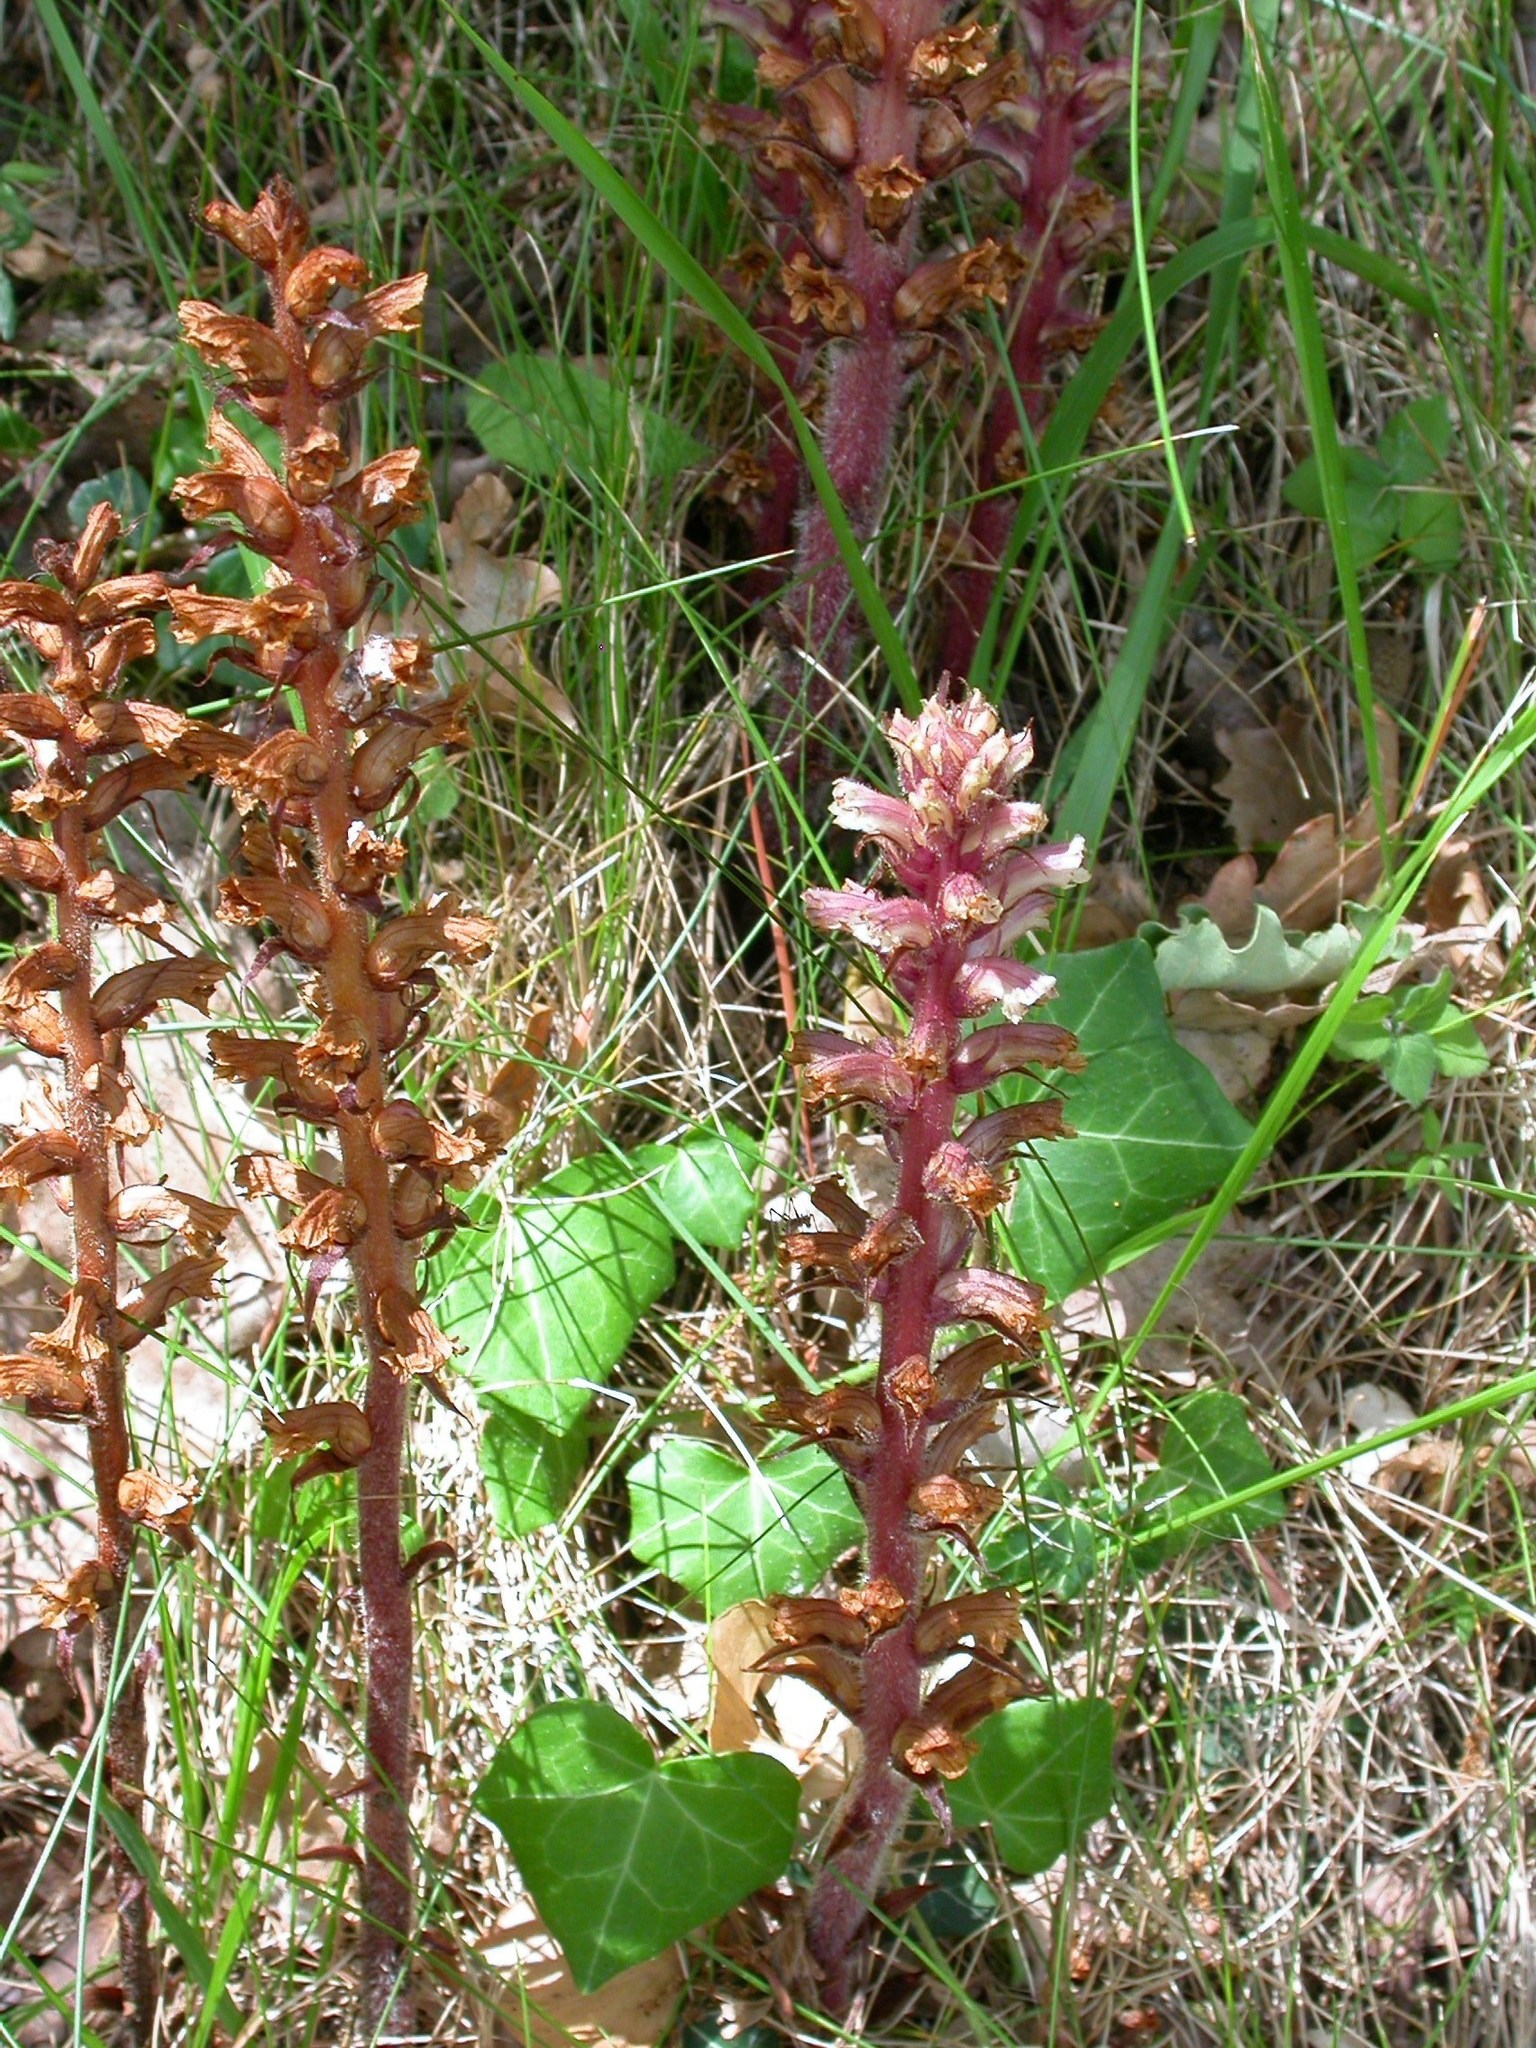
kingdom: Plantae
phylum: Tracheophyta
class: Magnoliopsida
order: Lamiales
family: Orobanchaceae
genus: Orobanche
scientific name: Orobanche hederae
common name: Ivy broomrape
